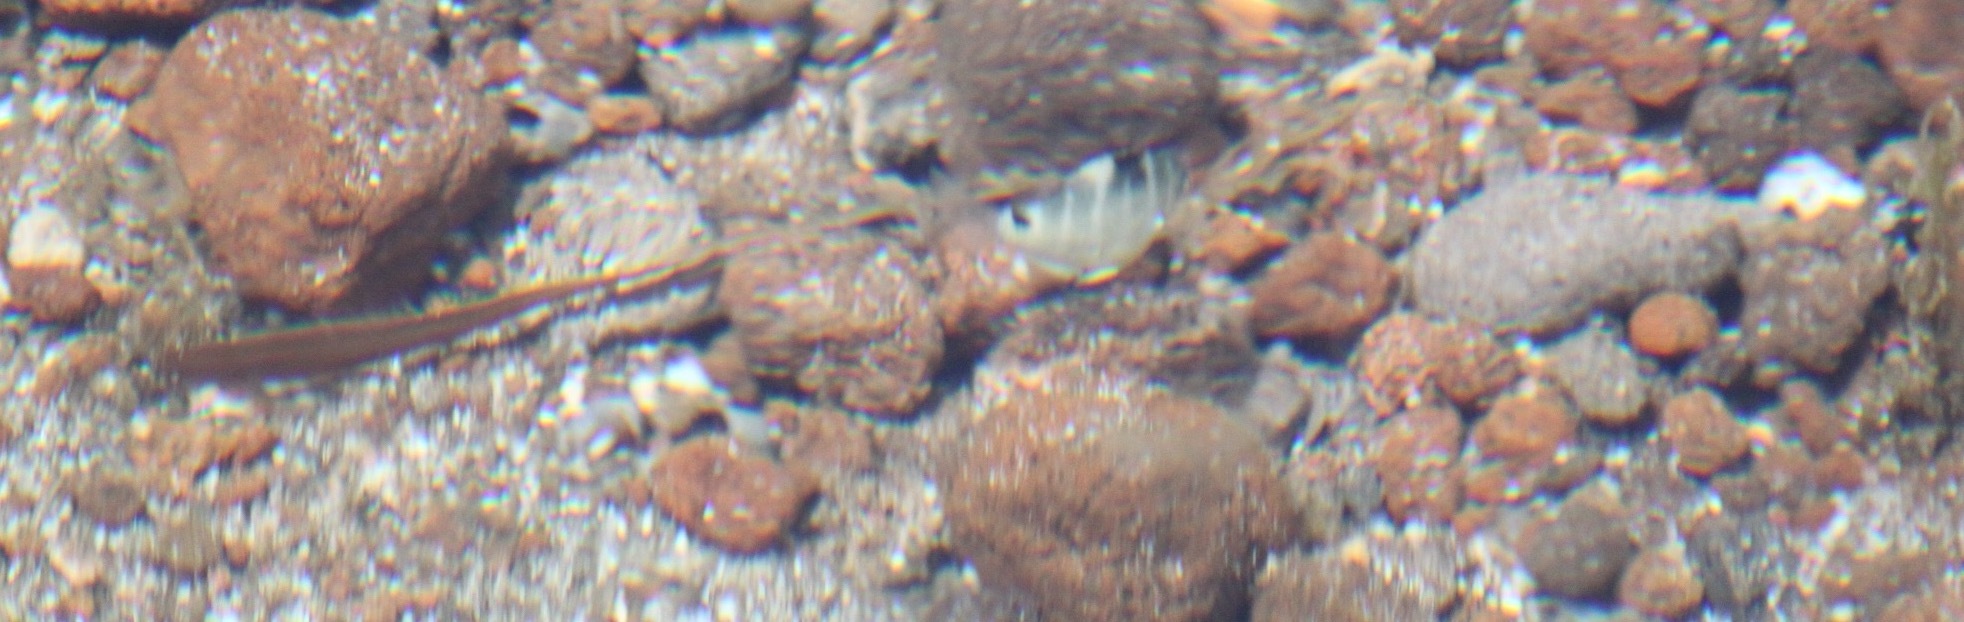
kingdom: Animalia
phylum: Chordata
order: Perciformes
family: Pomacentridae
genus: Abudefduf
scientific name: Abudefduf sordidus
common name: Blackspot sergeant
